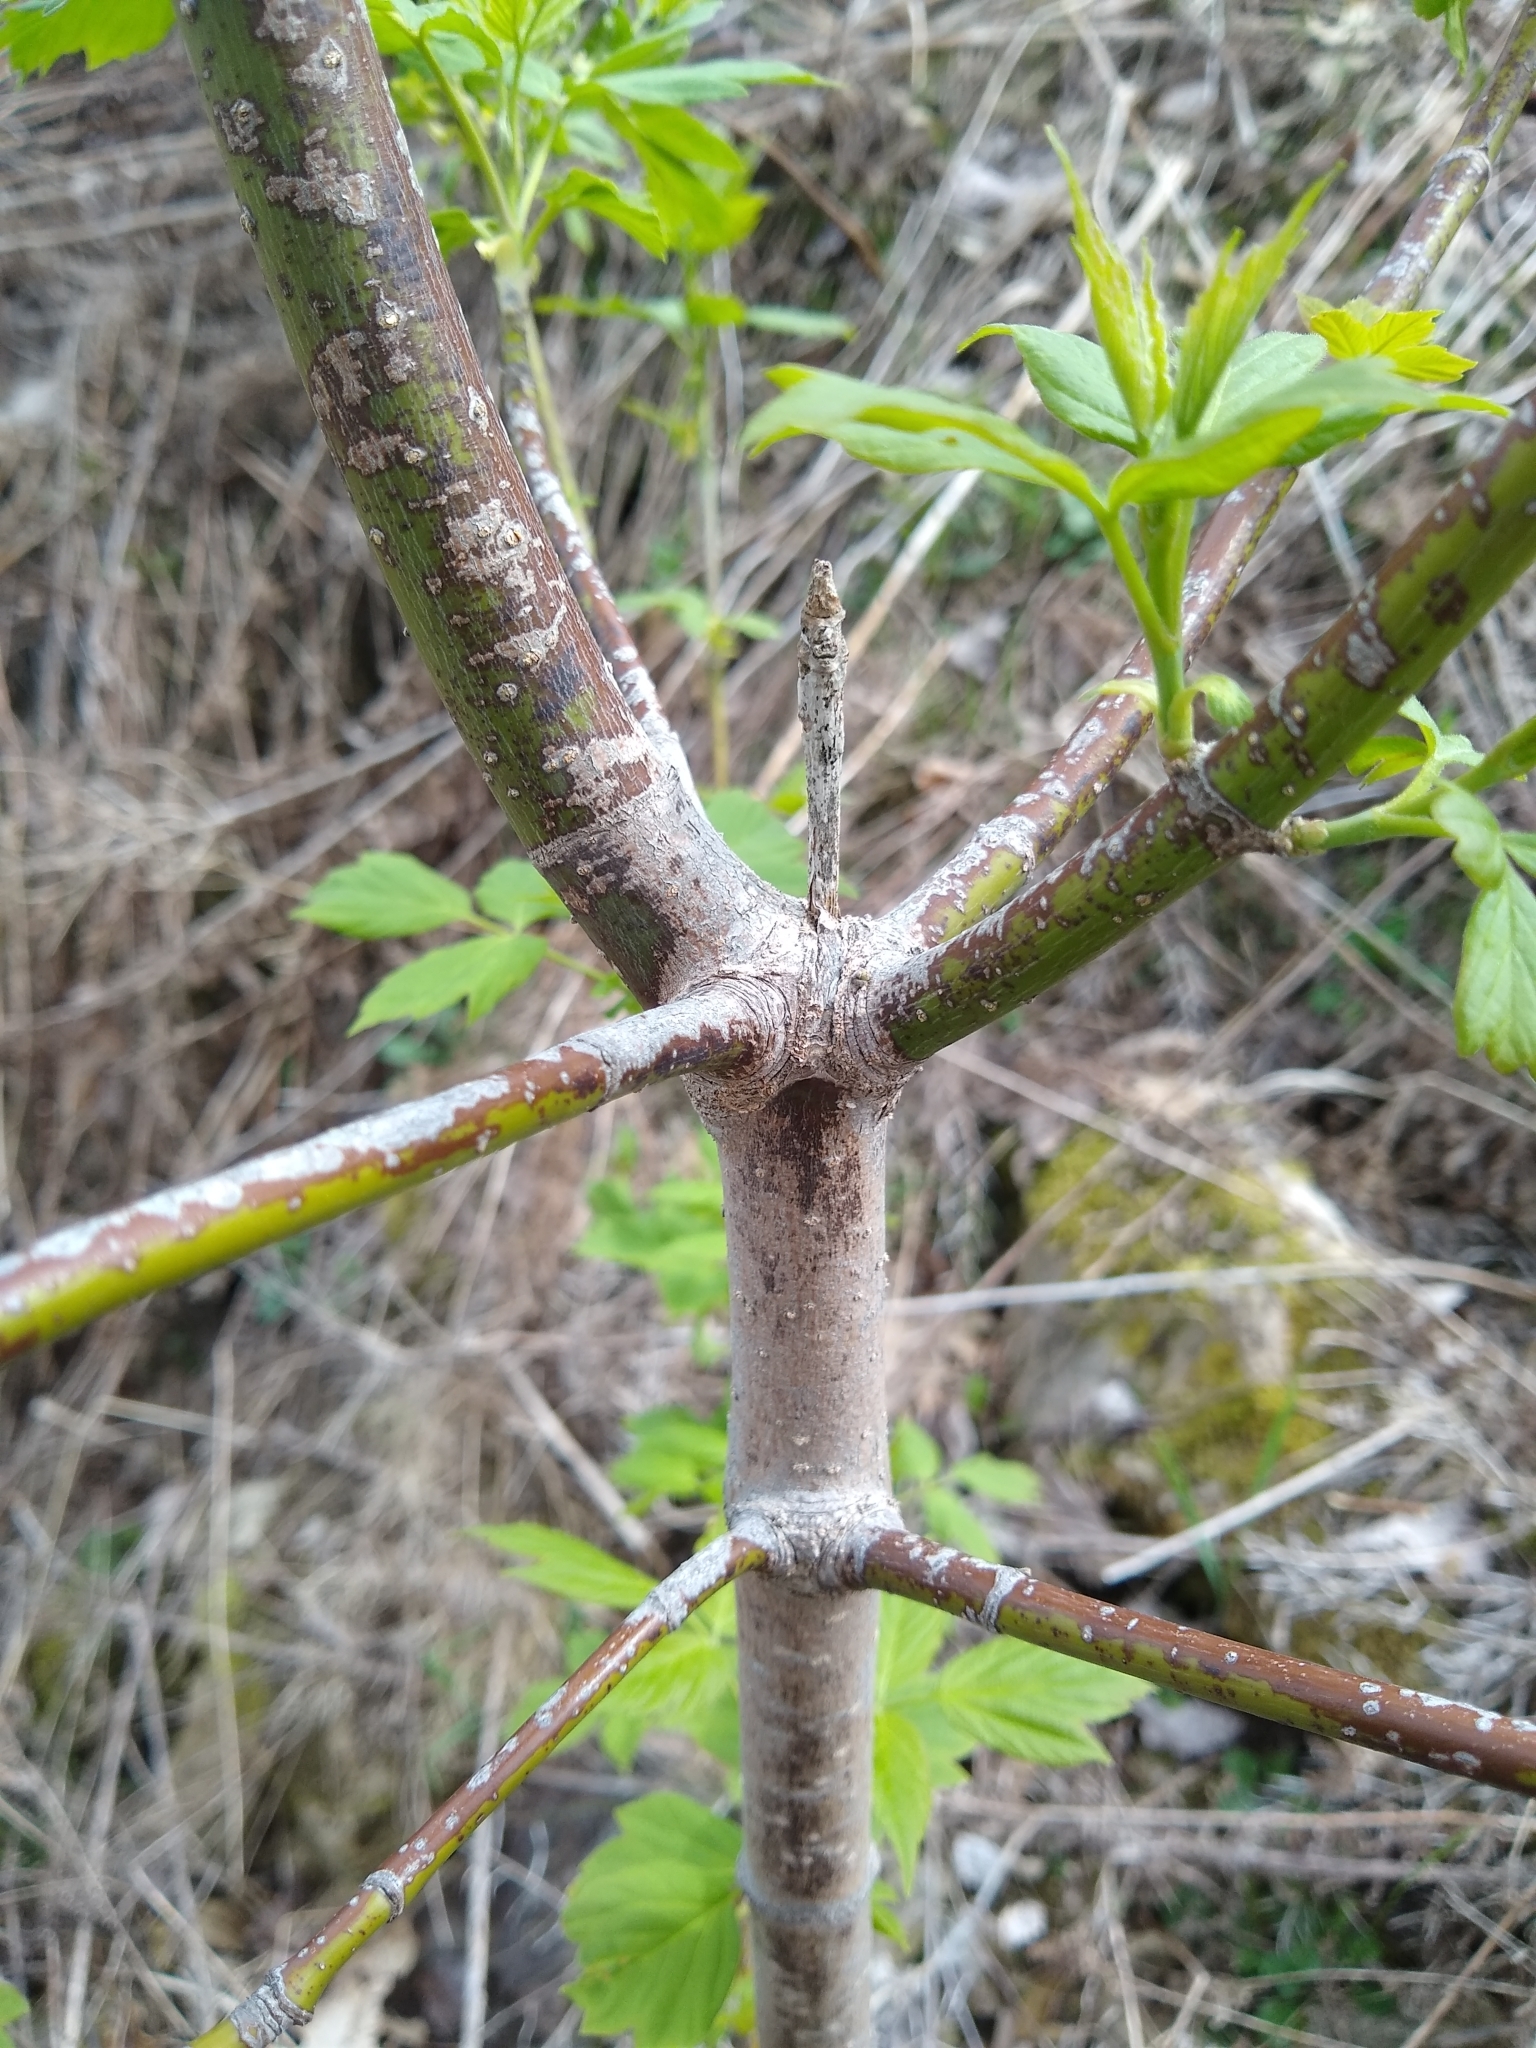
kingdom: Plantae
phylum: Tracheophyta
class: Magnoliopsida
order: Sapindales
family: Sapindaceae
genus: Acer
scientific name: Acer negundo
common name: Ashleaf maple
